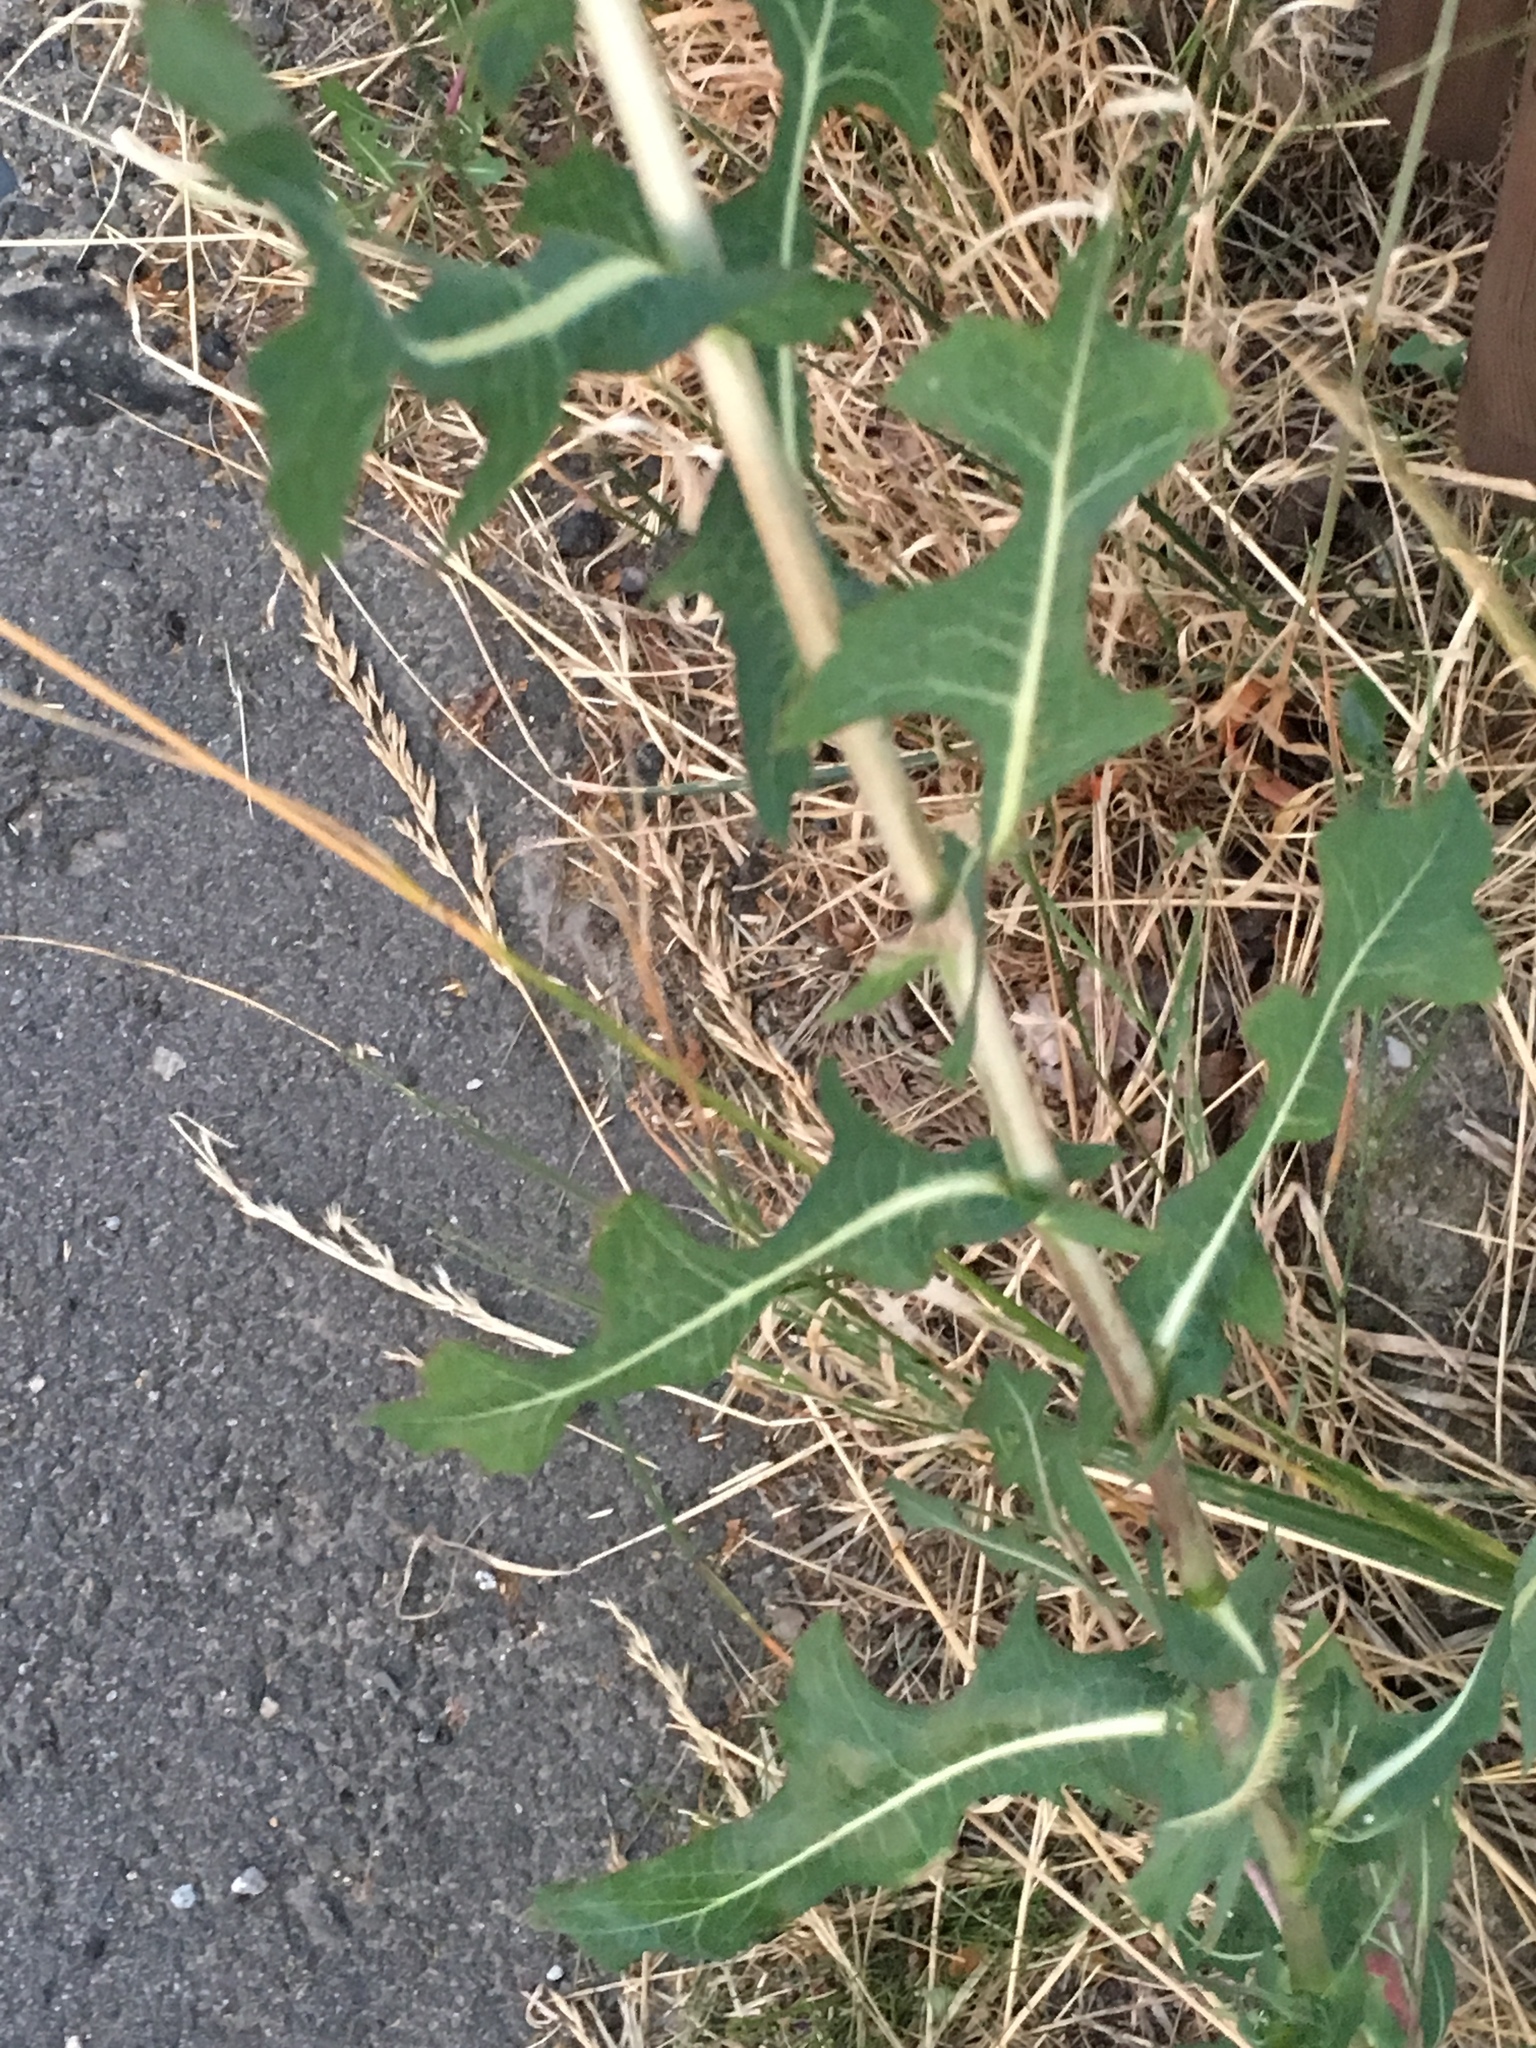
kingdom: Plantae
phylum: Tracheophyta
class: Magnoliopsida
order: Asterales
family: Asteraceae
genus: Lactuca
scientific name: Lactuca serriola
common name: Prickly lettuce
